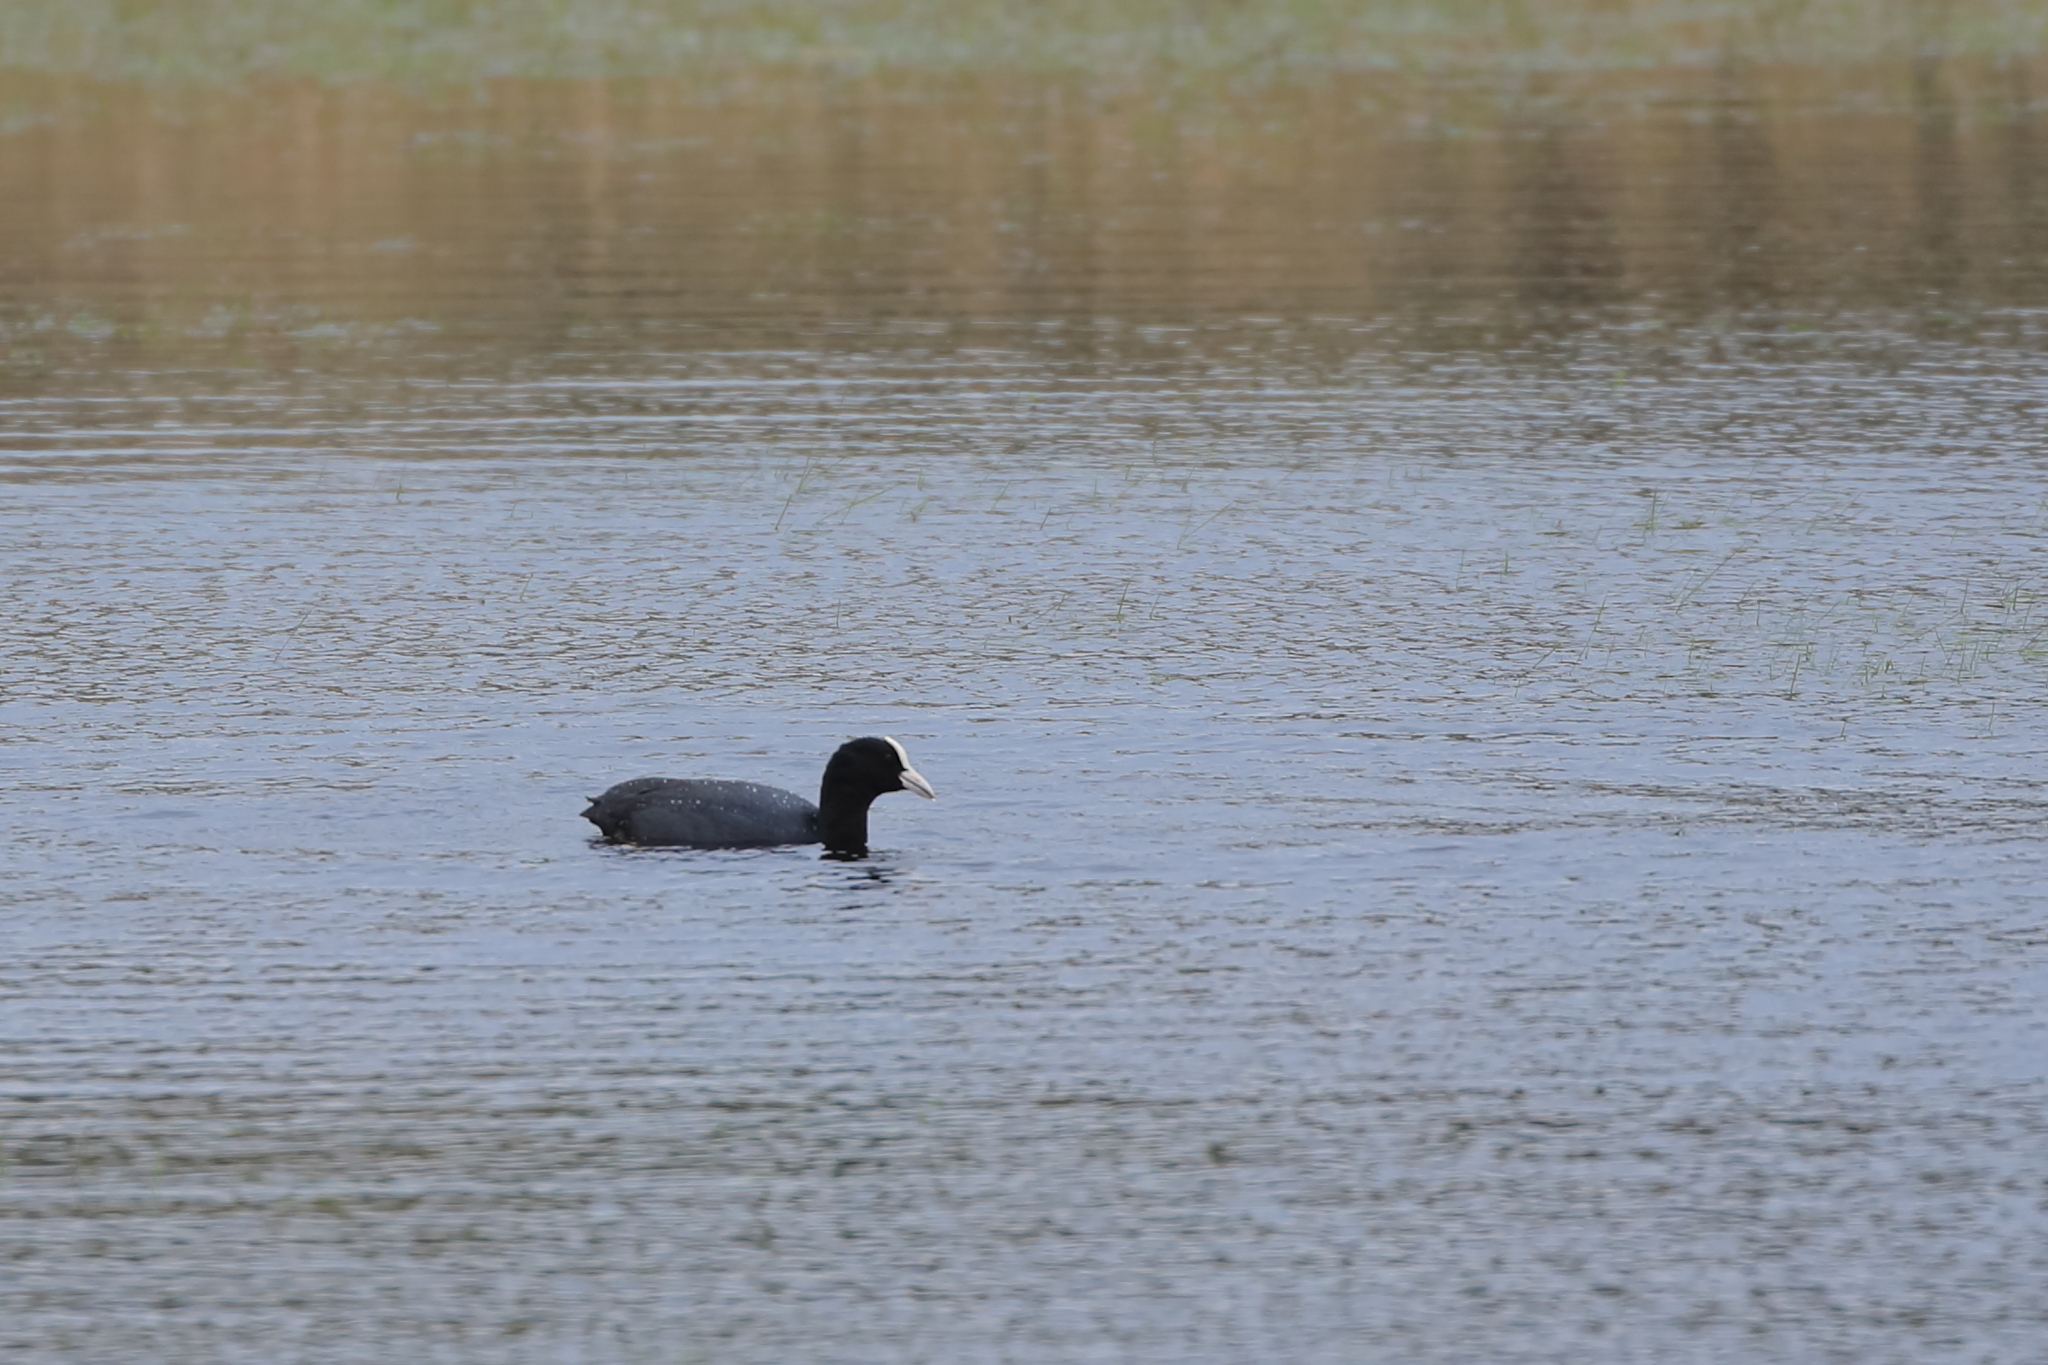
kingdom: Animalia
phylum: Chordata
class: Aves
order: Gruiformes
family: Rallidae
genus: Fulica
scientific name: Fulica atra
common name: Eurasian coot
